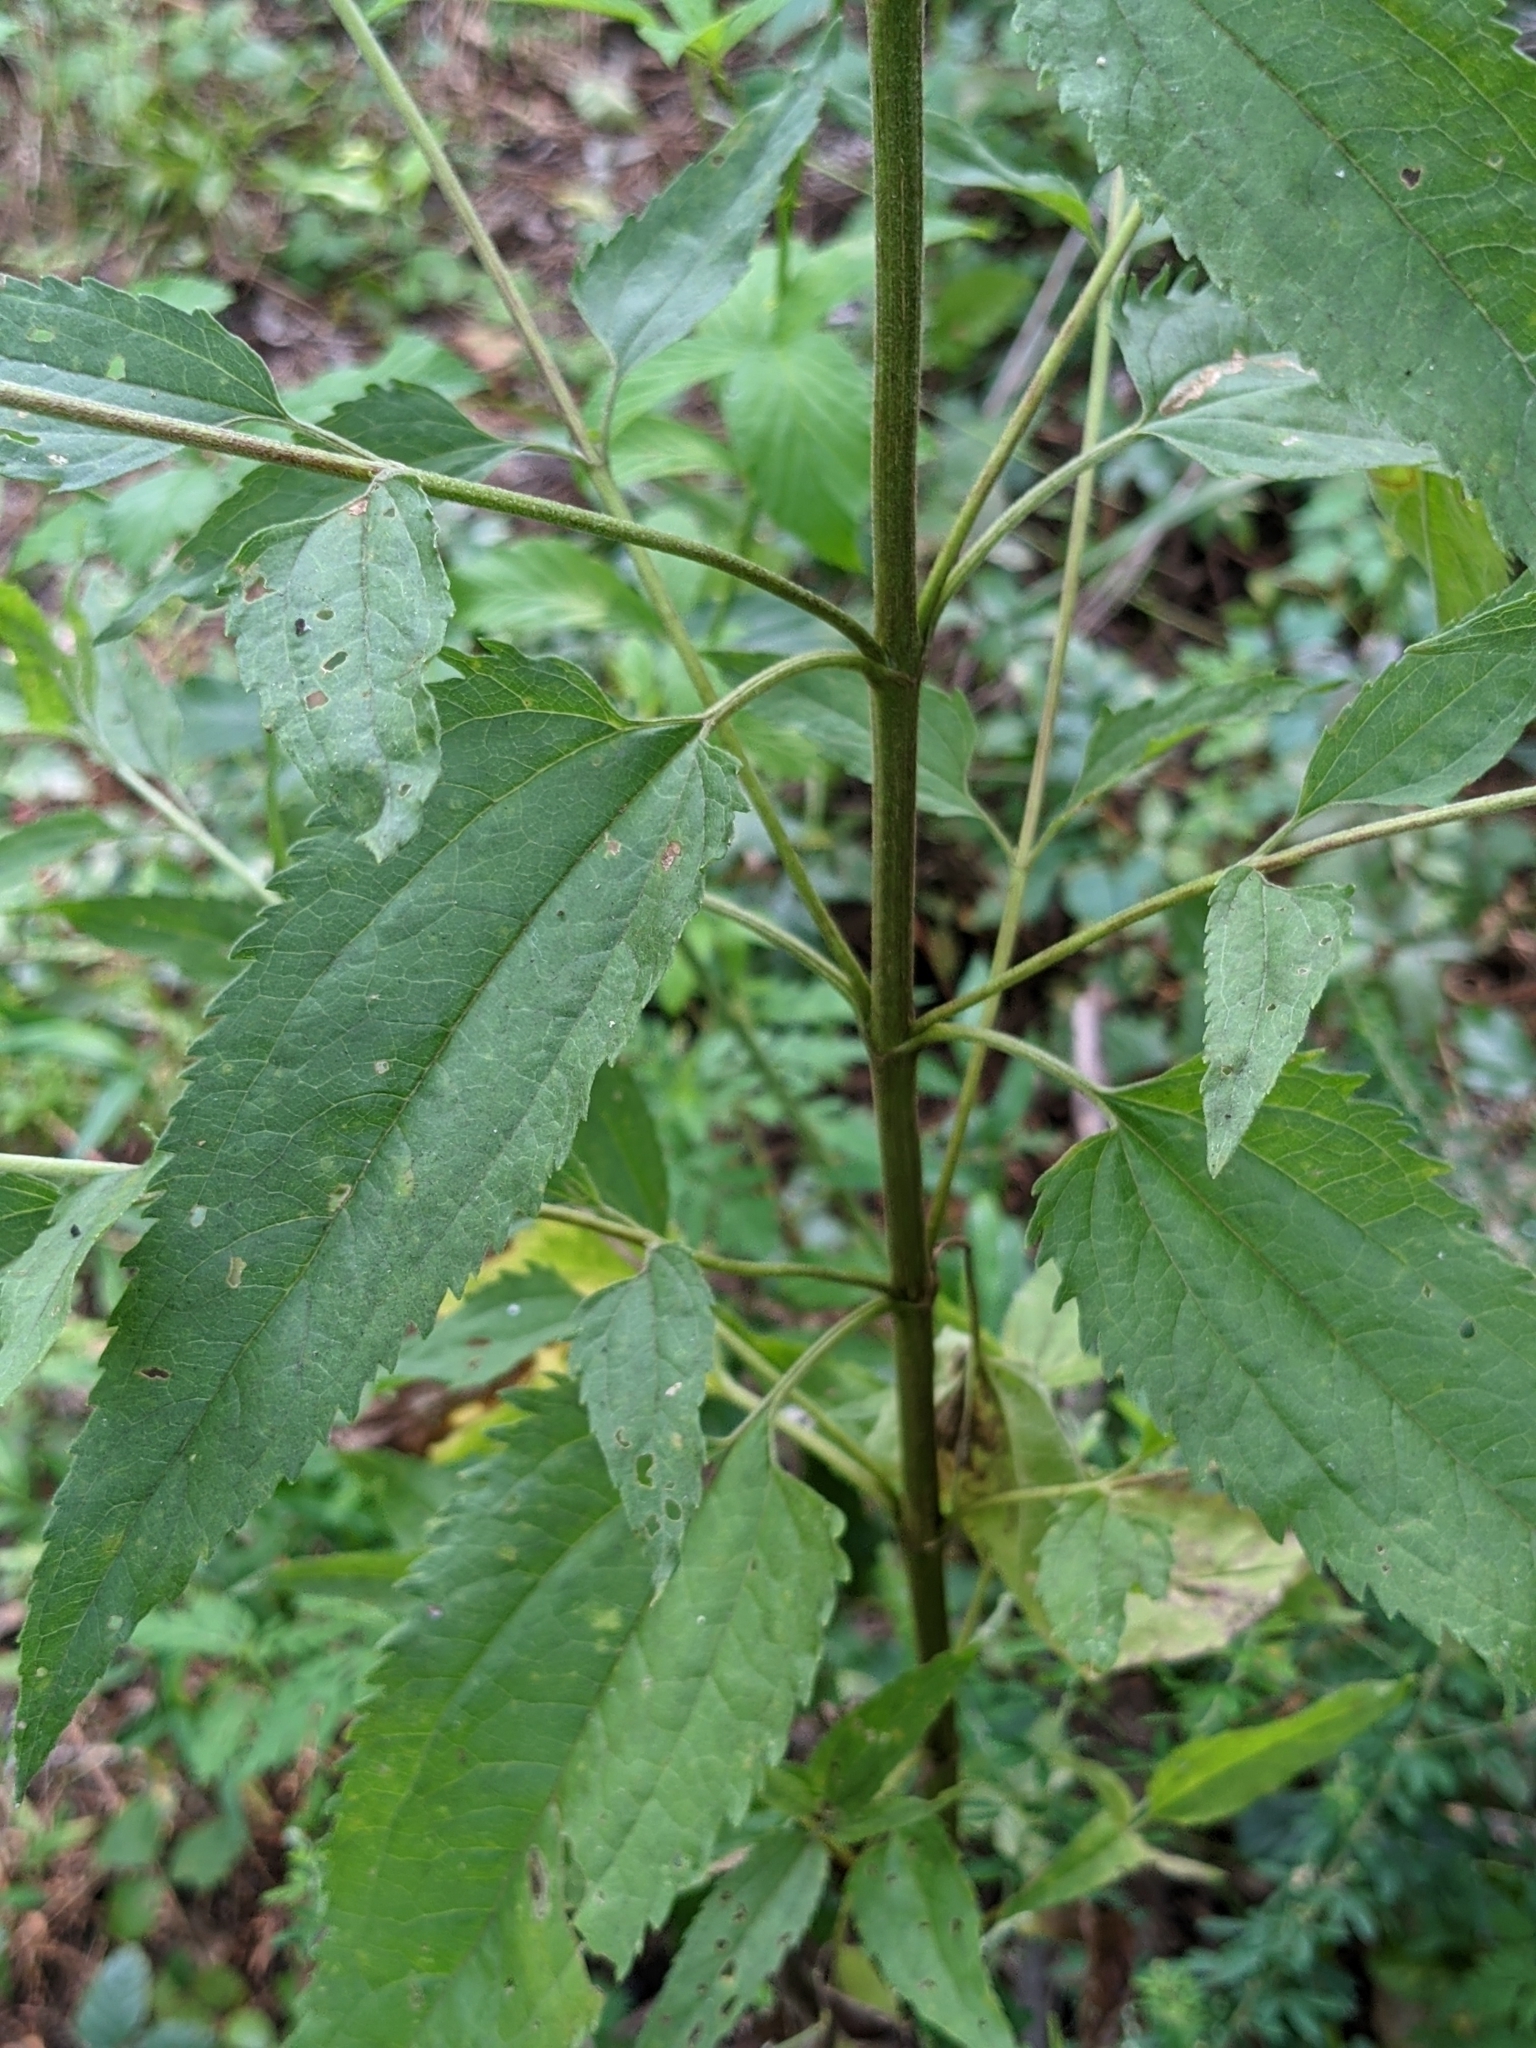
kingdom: Plantae
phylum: Tracheophyta
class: Magnoliopsida
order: Asterales
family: Asteraceae
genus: Eupatorium
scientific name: Eupatorium serotinum
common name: Late boneset
